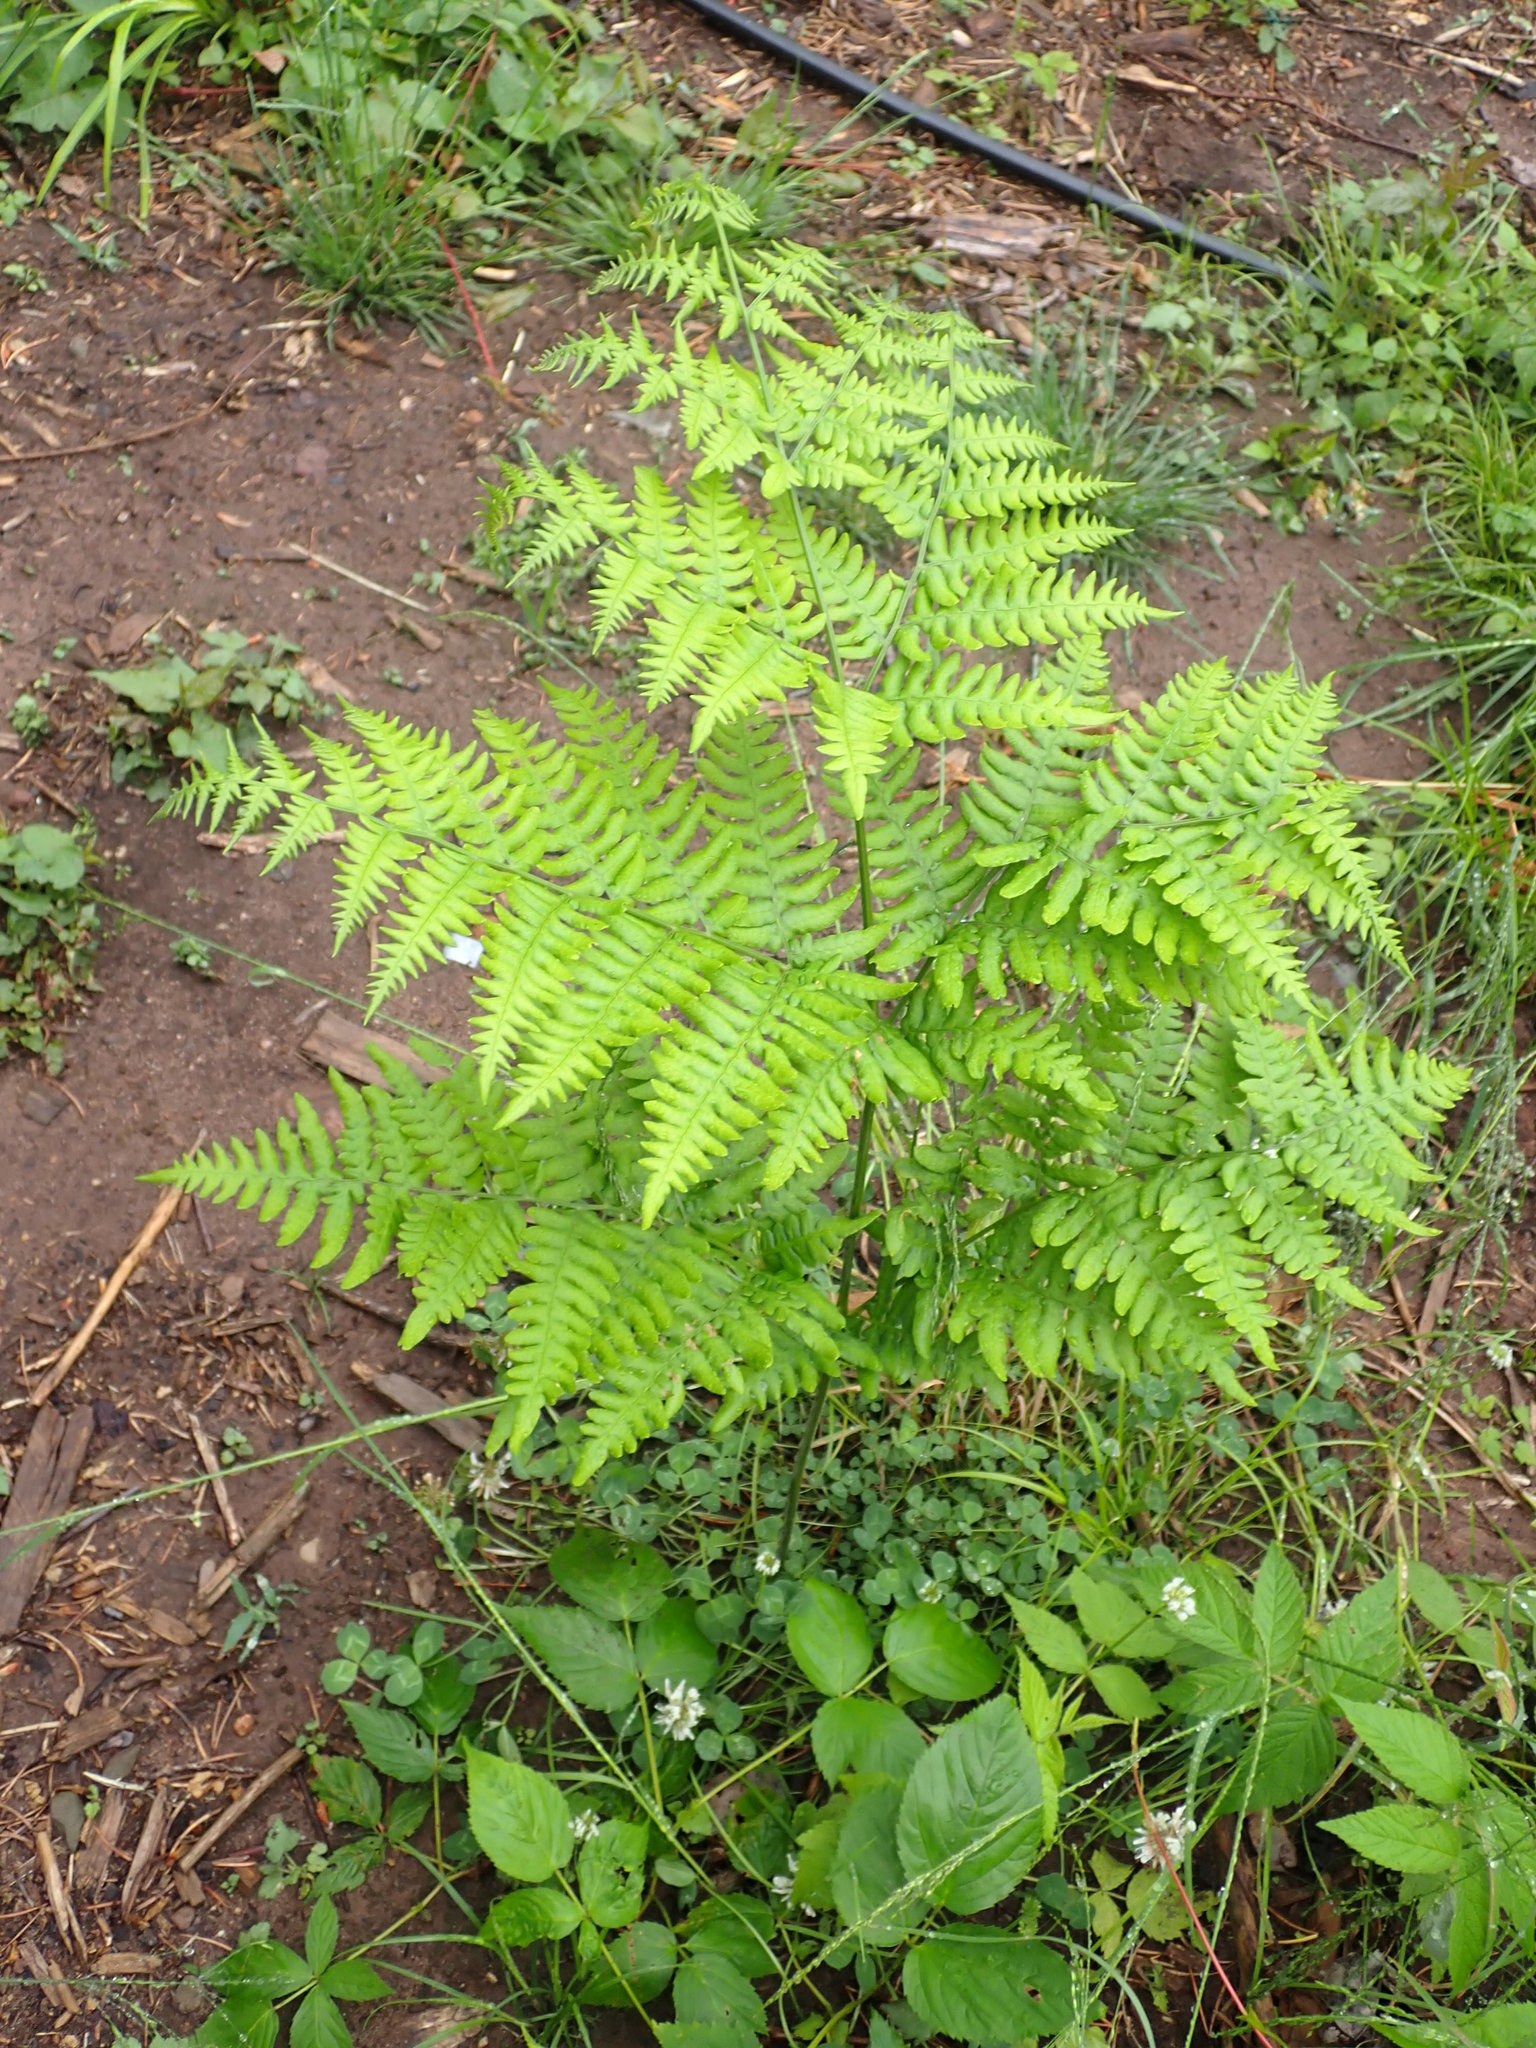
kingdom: Plantae
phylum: Tracheophyta
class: Polypodiopsida
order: Polypodiales
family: Dennstaedtiaceae
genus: Pteridium
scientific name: Pteridium aquilinum
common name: Bracken
